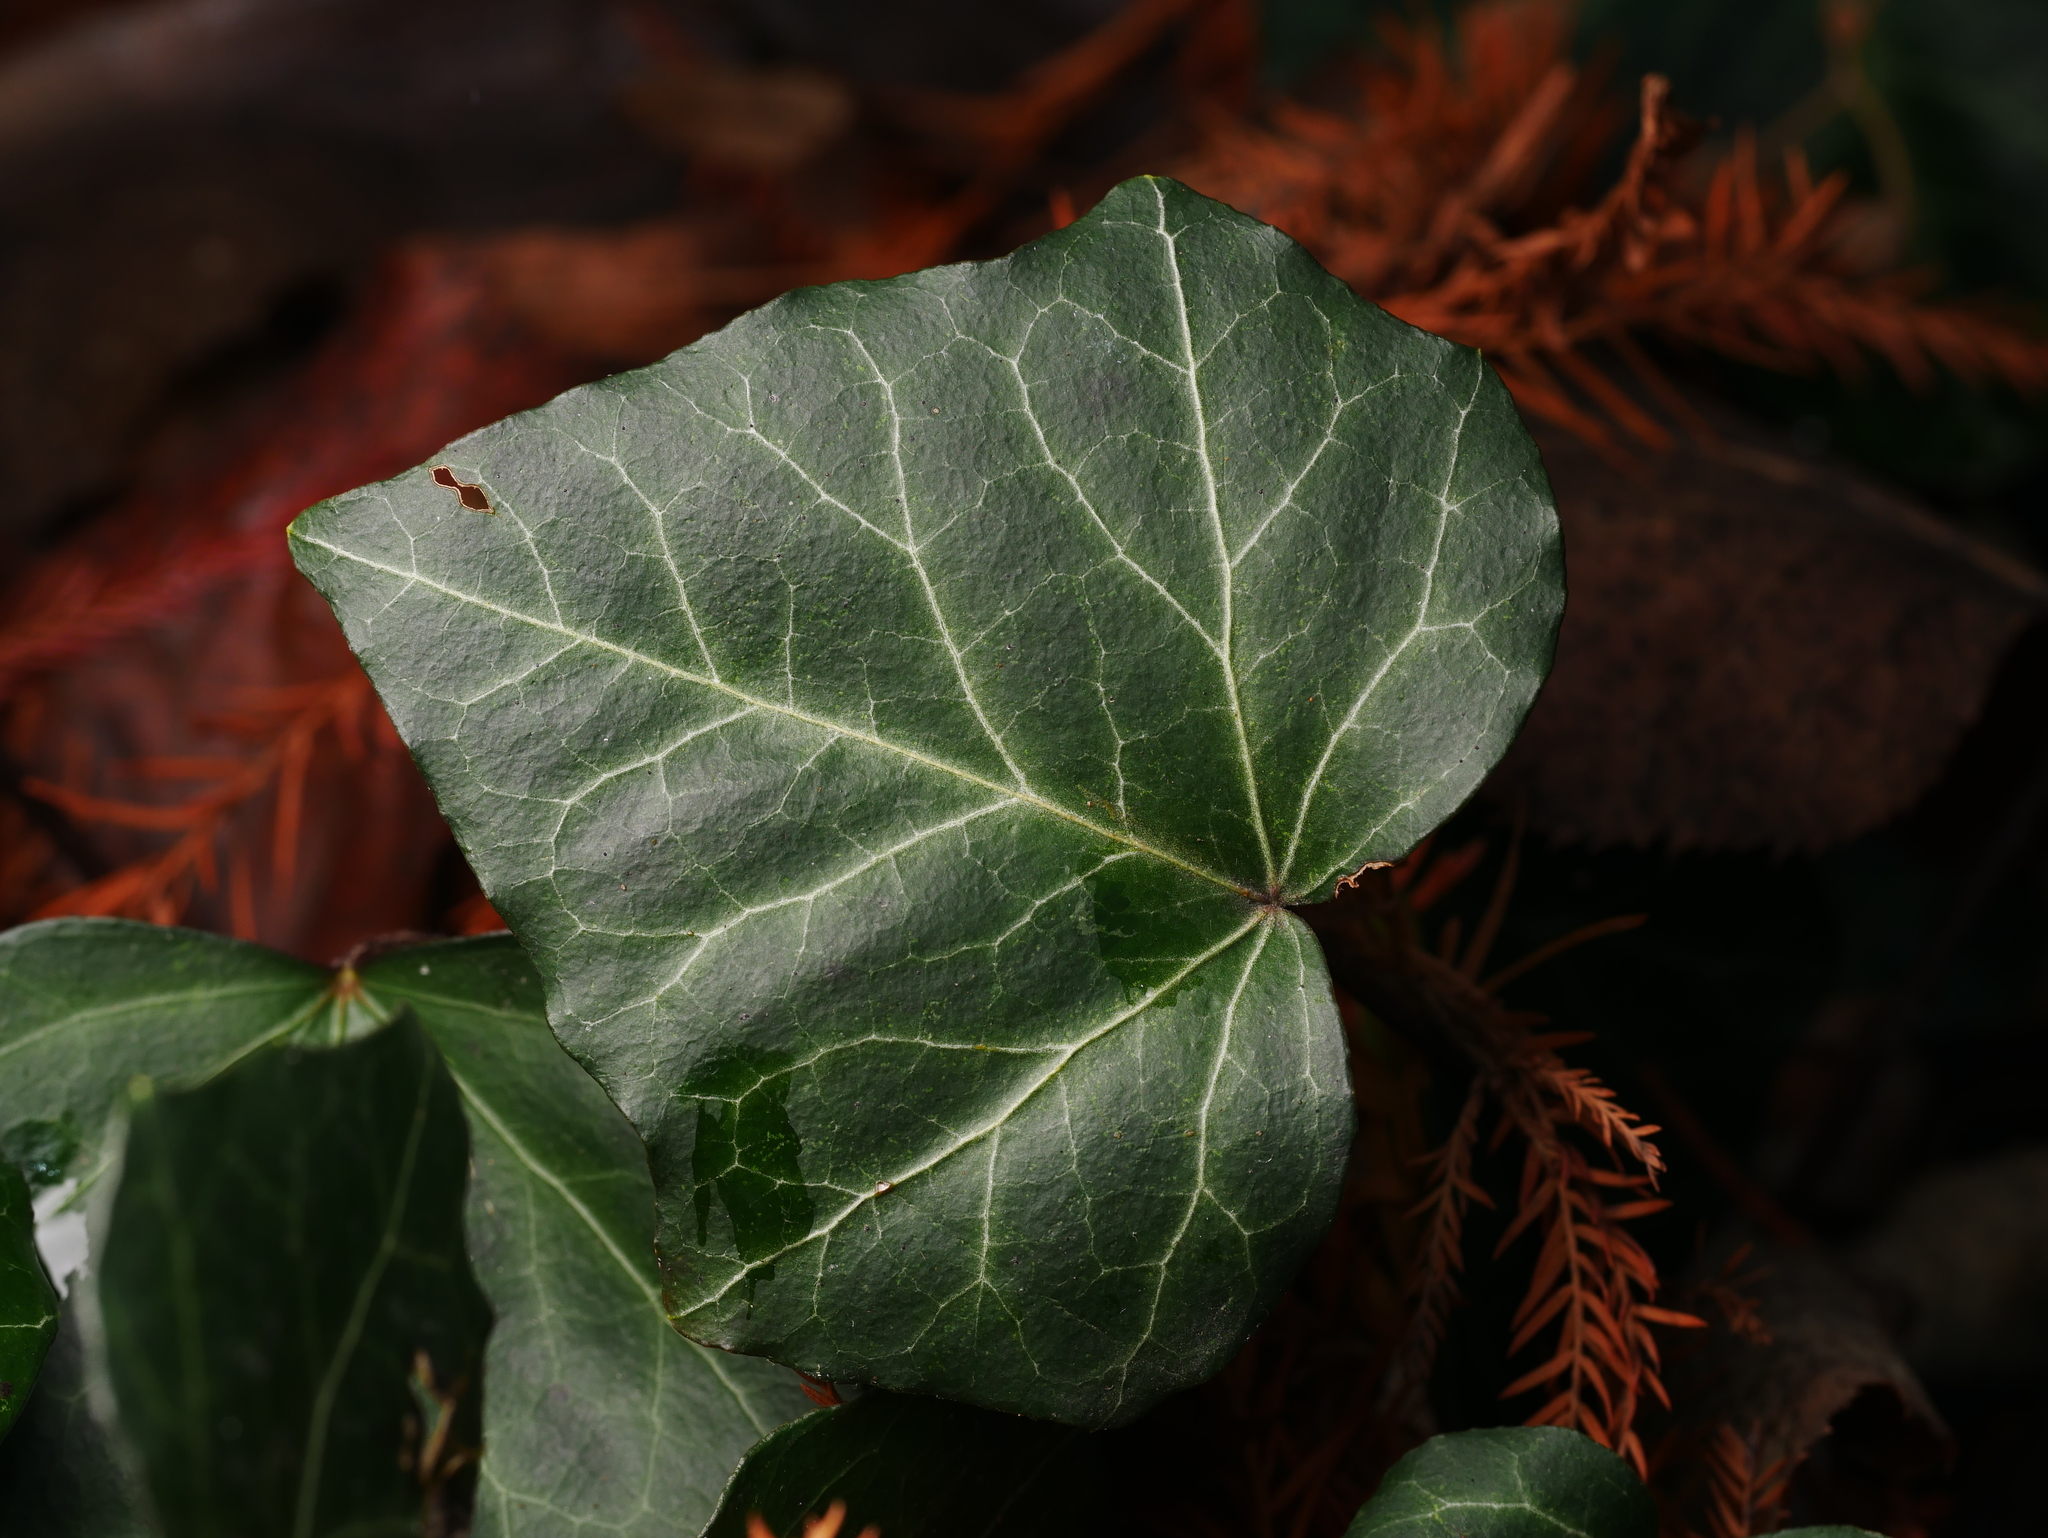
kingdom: Plantae
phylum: Tracheophyta
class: Magnoliopsida
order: Apiales
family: Araliaceae
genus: Hedera
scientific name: Hedera helix
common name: Ivy
